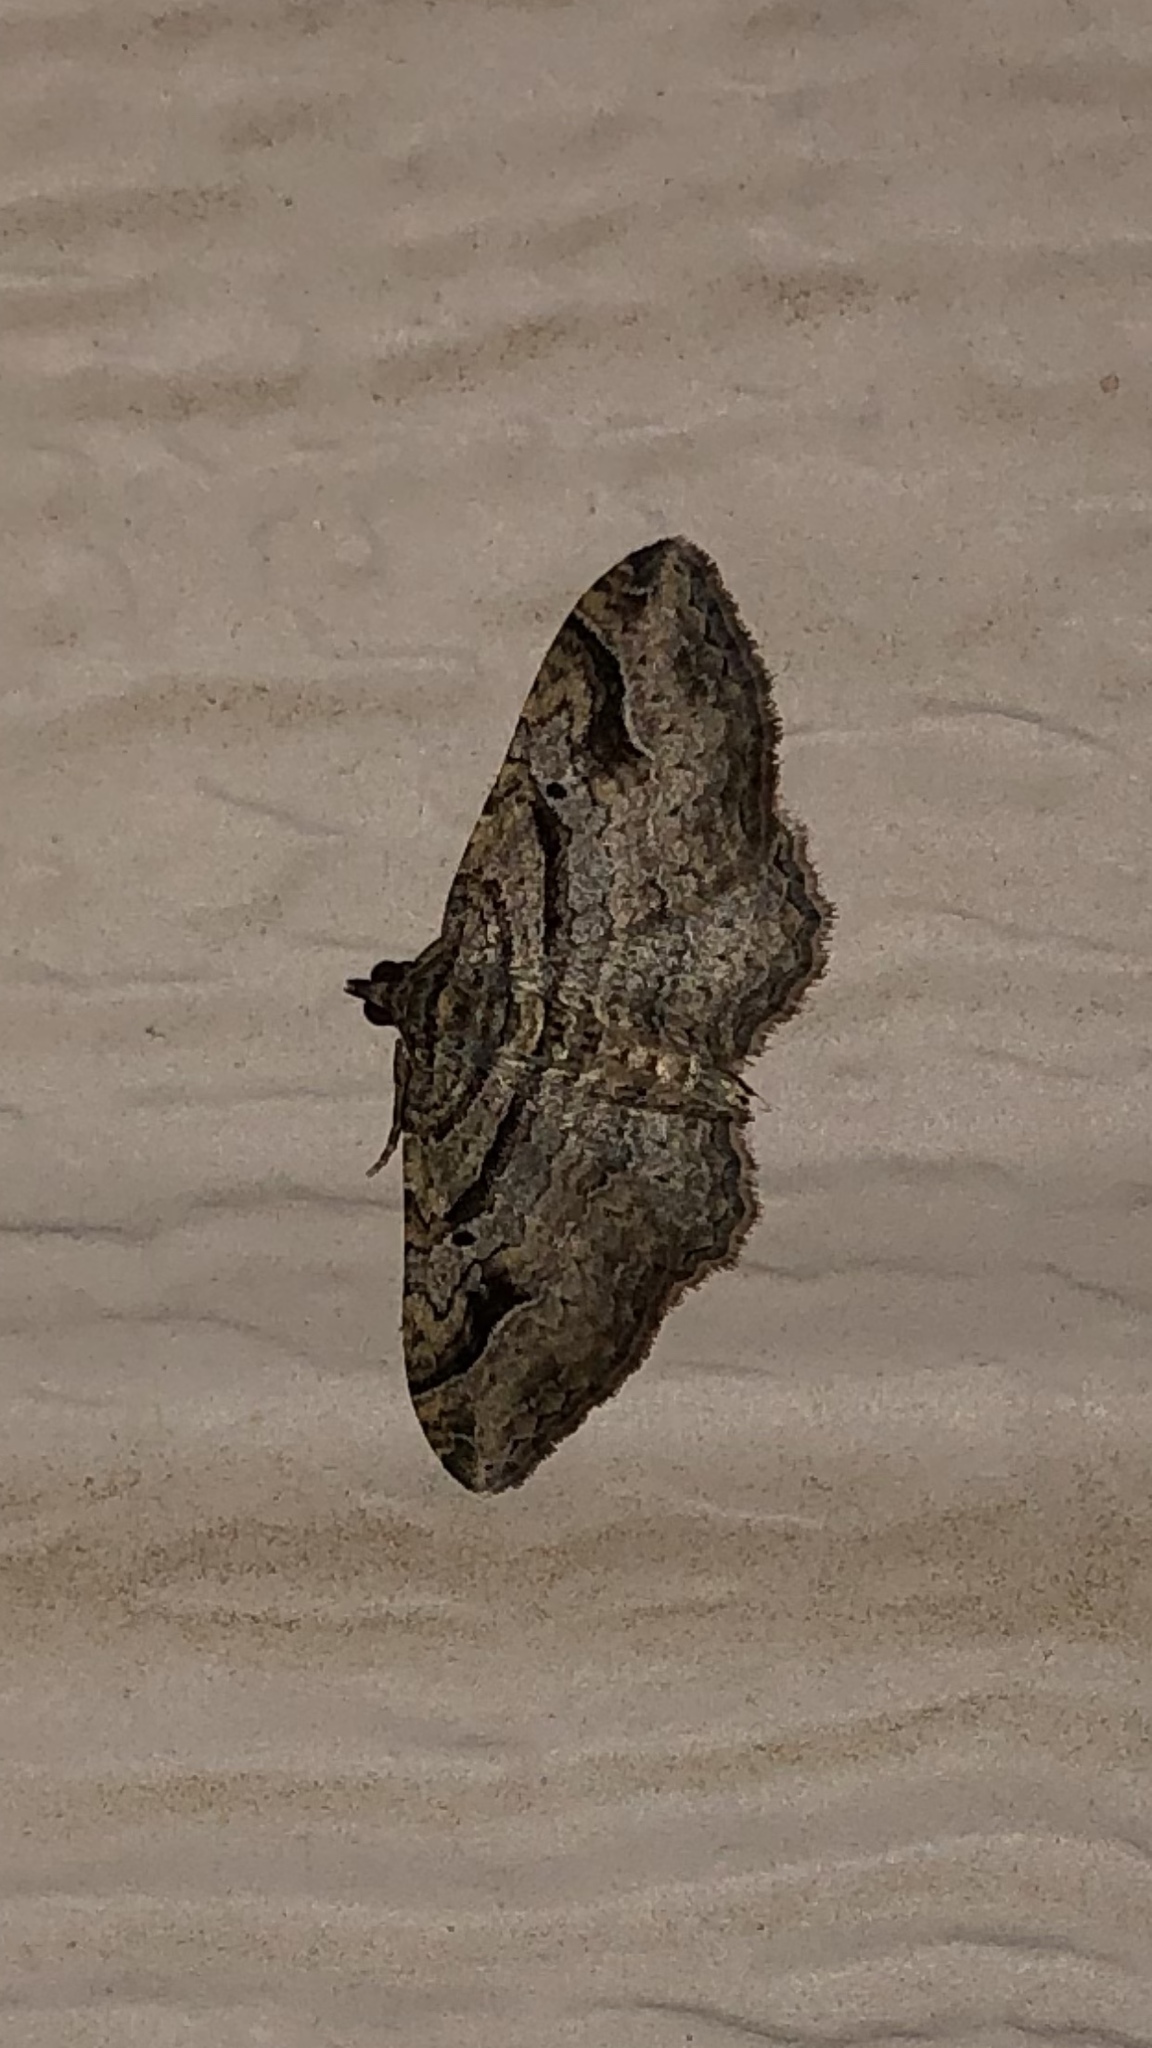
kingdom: Animalia
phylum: Arthropoda
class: Insecta
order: Lepidoptera
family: Geometridae
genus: Costaconvexa
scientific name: Costaconvexa centrostrigaria
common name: Bent-line carpet
